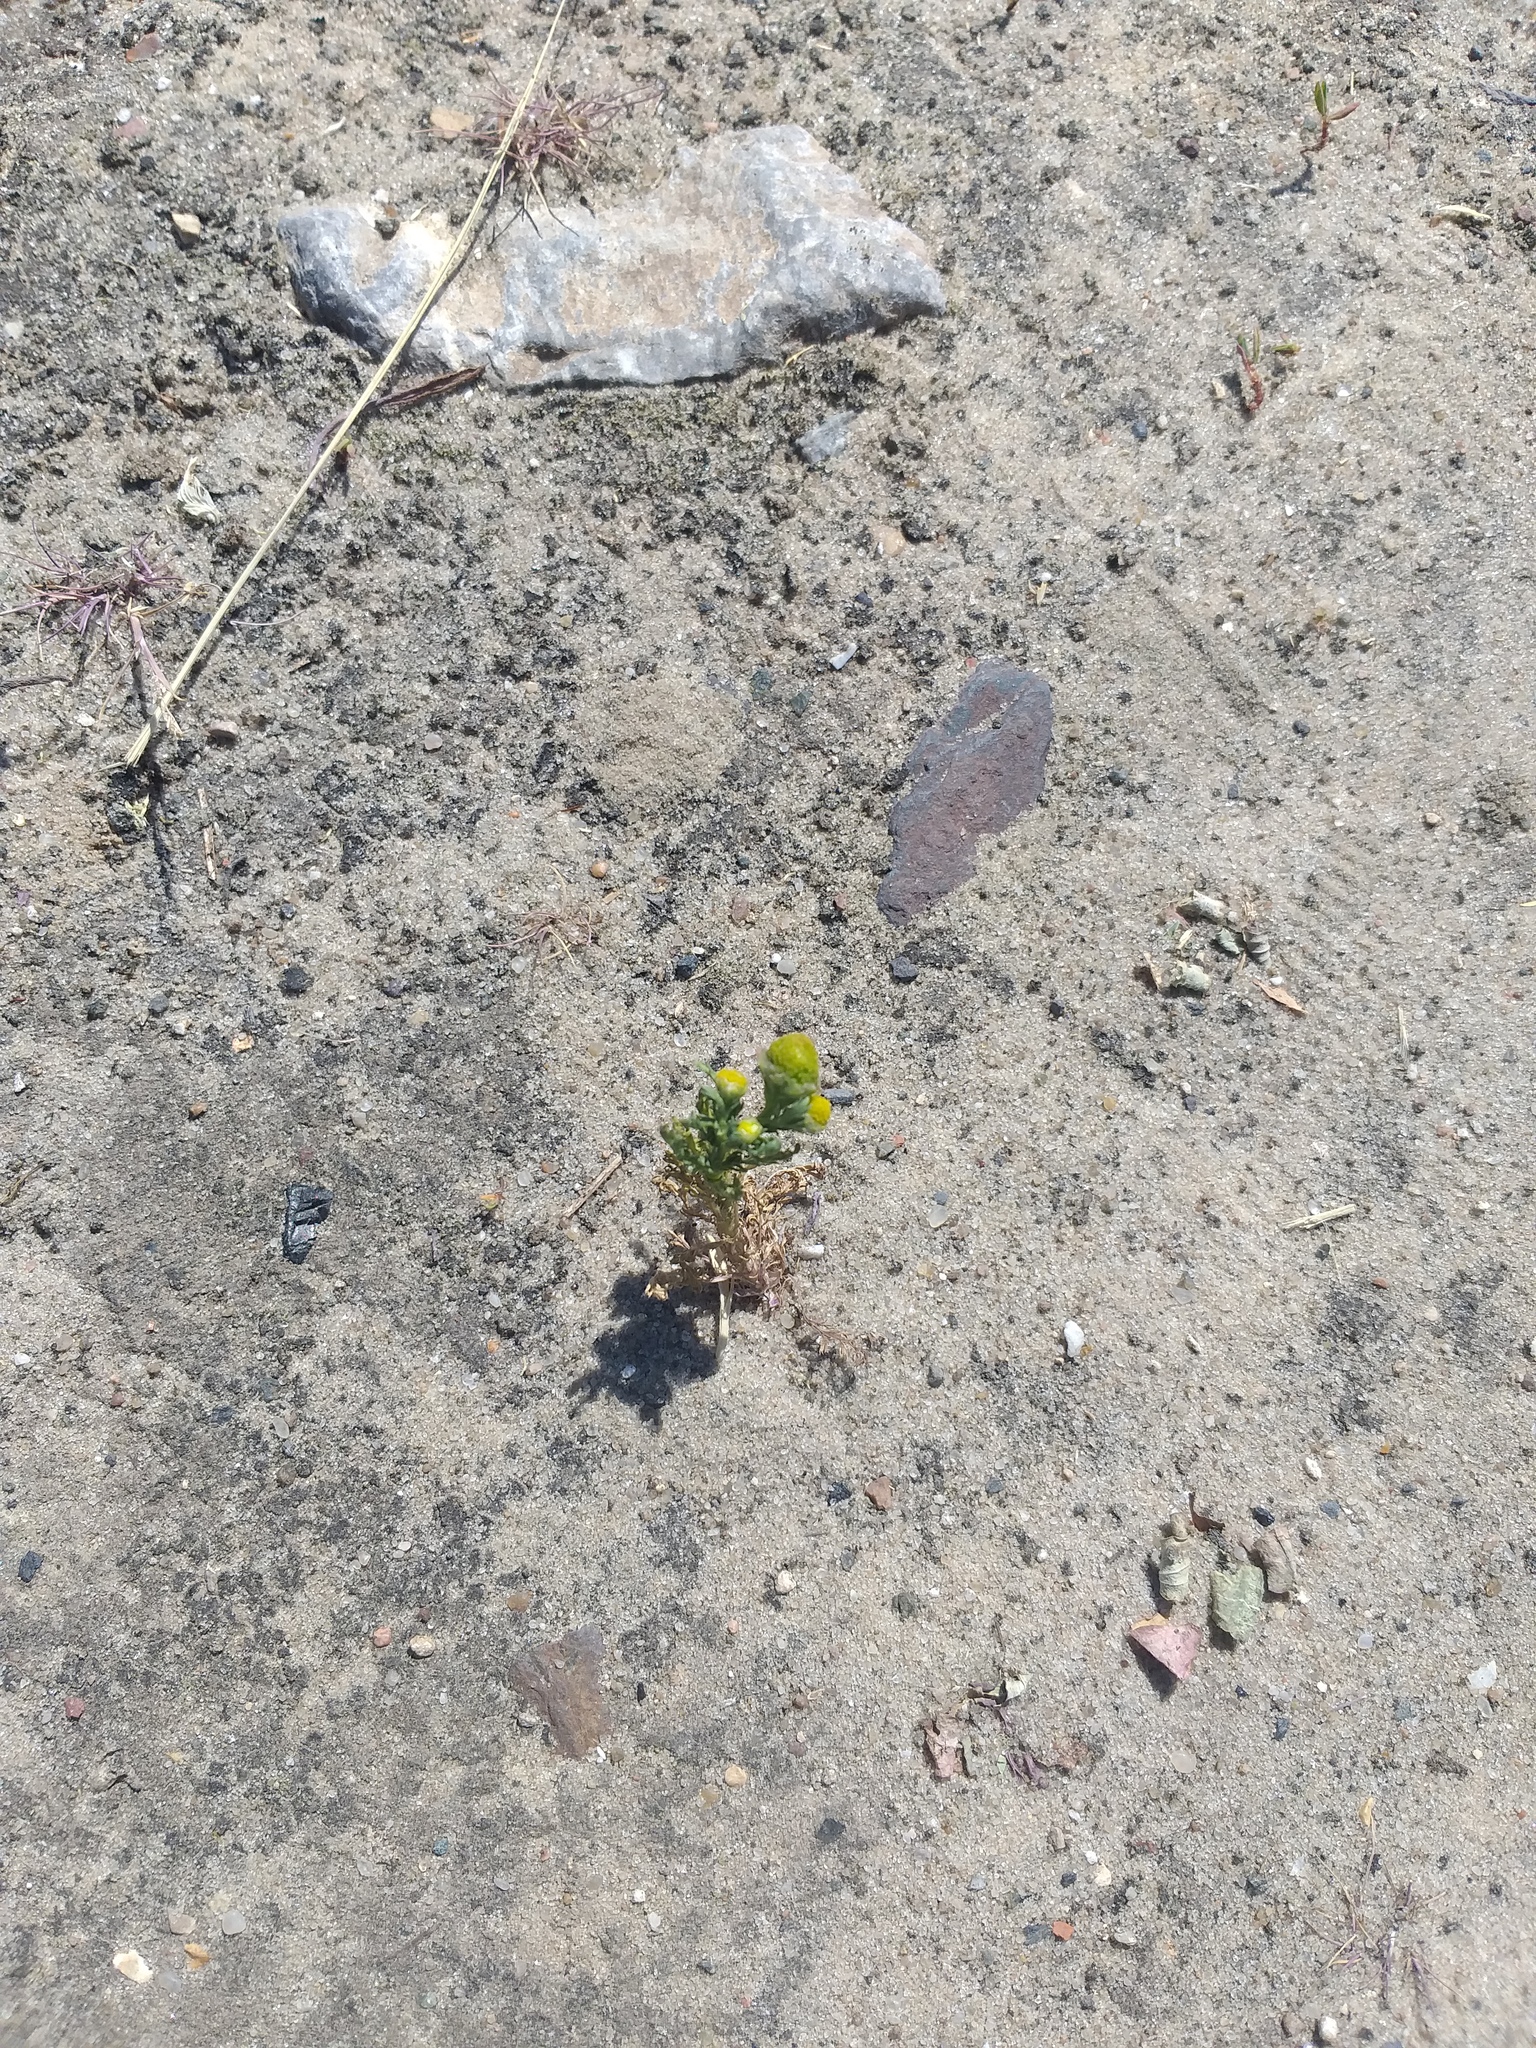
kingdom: Plantae
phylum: Tracheophyta
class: Magnoliopsida
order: Asterales
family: Asteraceae
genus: Matricaria
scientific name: Matricaria discoidea
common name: Disc mayweed
